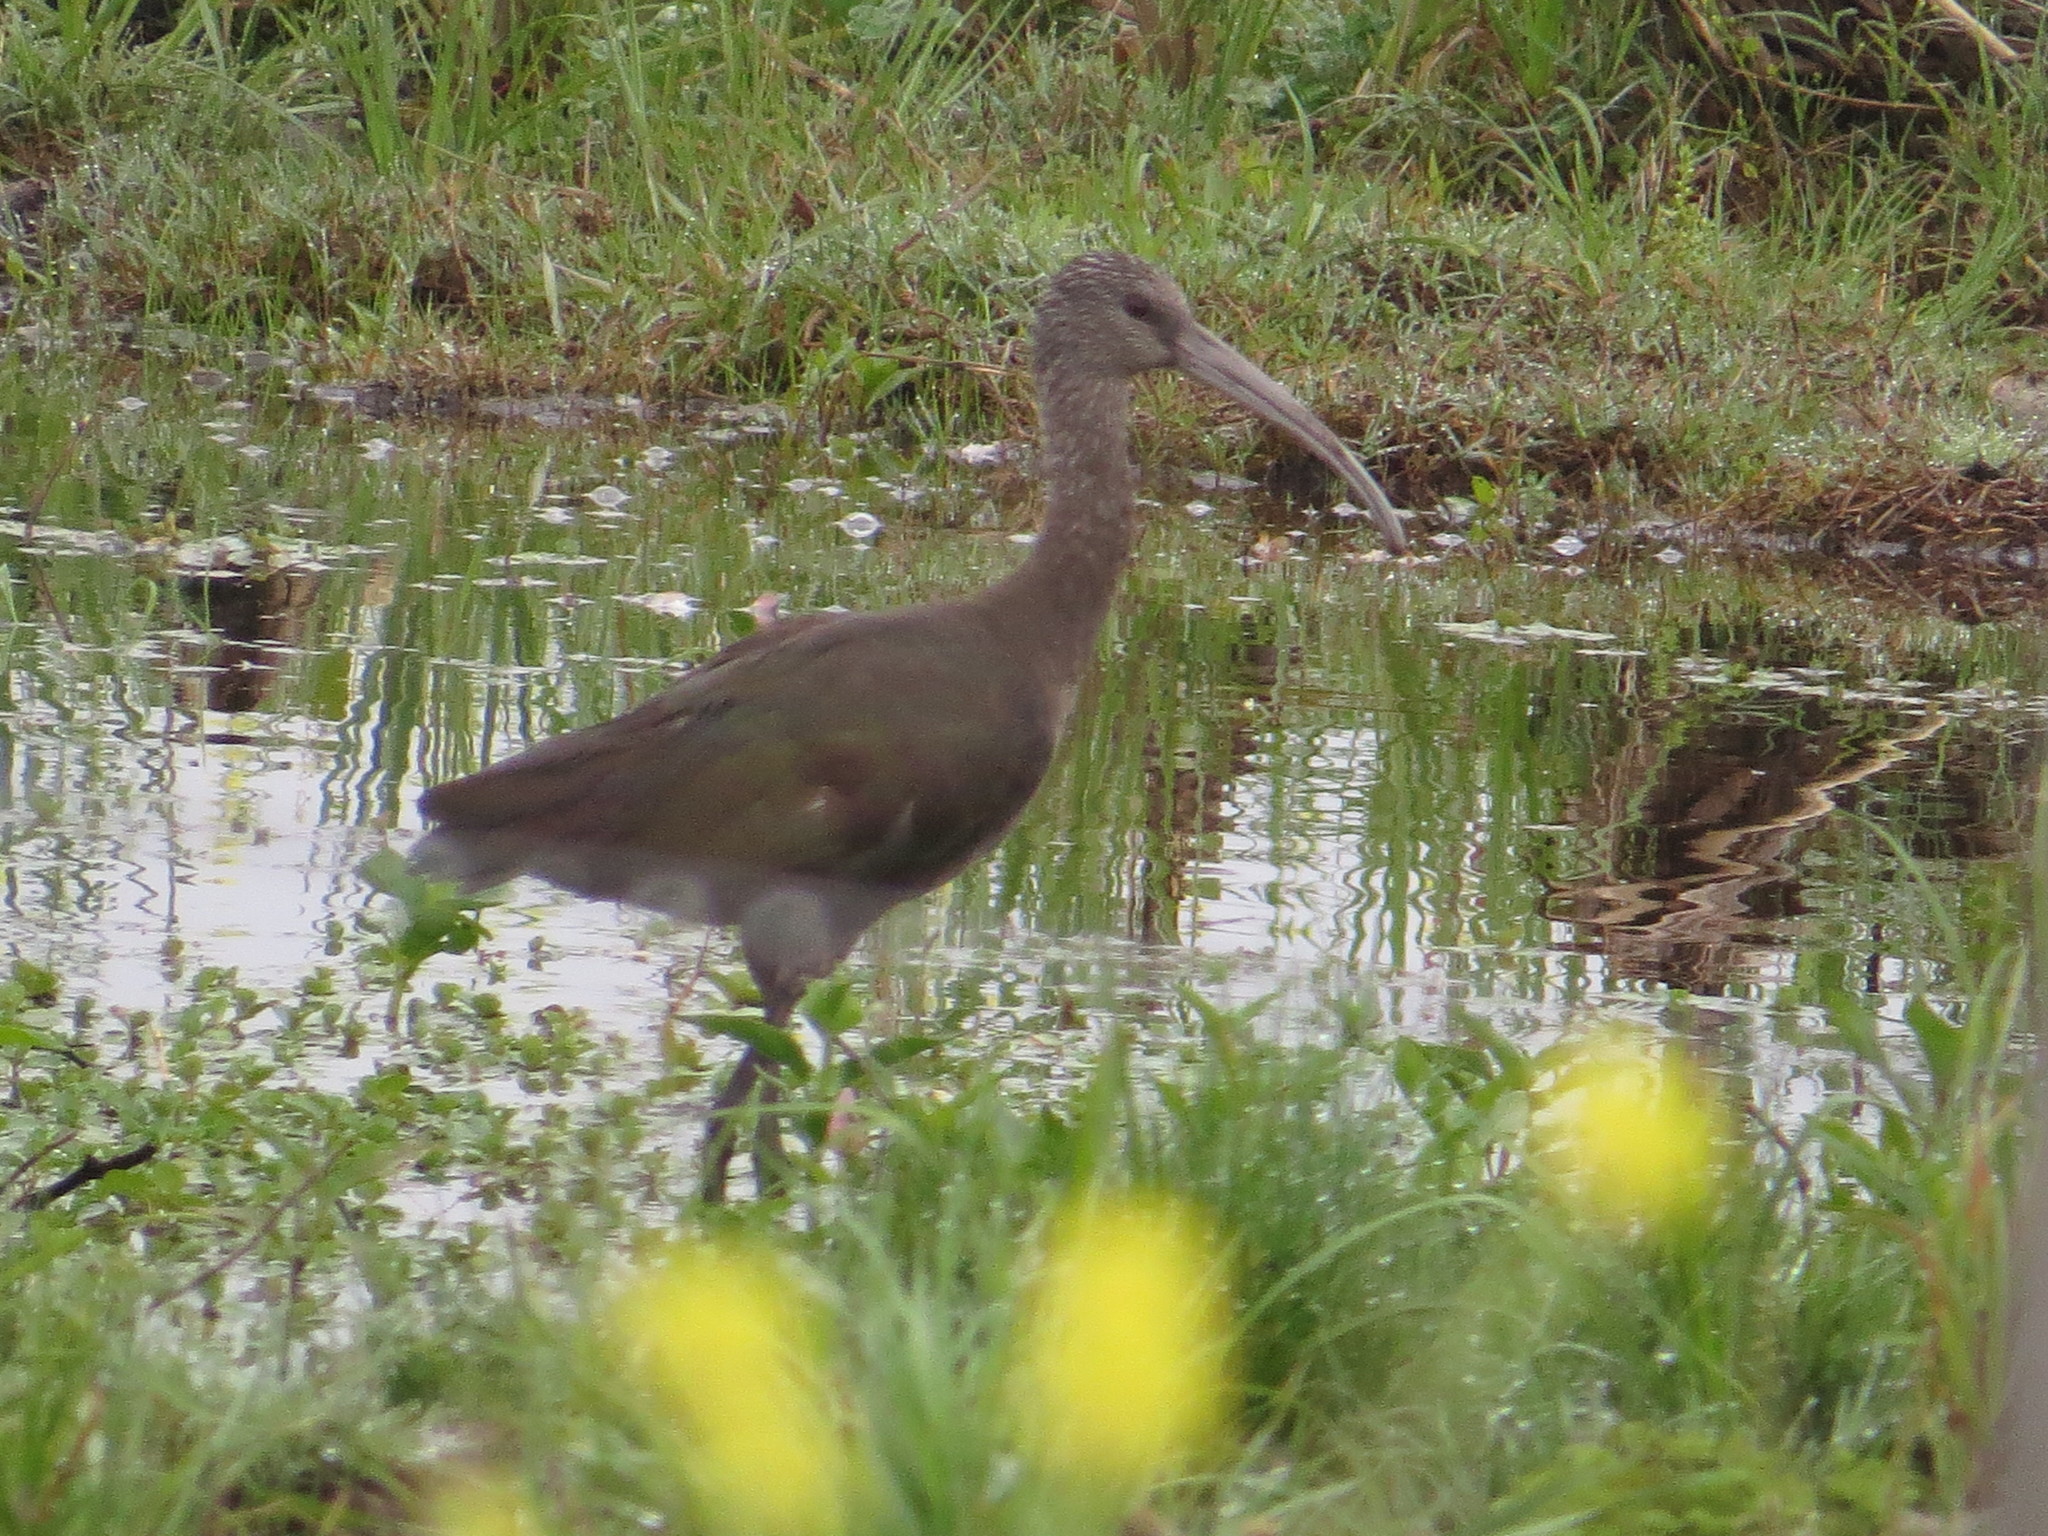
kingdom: Animalia
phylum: Chordata
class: Aves
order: Pelecaniformes
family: Threskiornithidae
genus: Plegadis
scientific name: Plegadis chihi
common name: White-faced ibis
